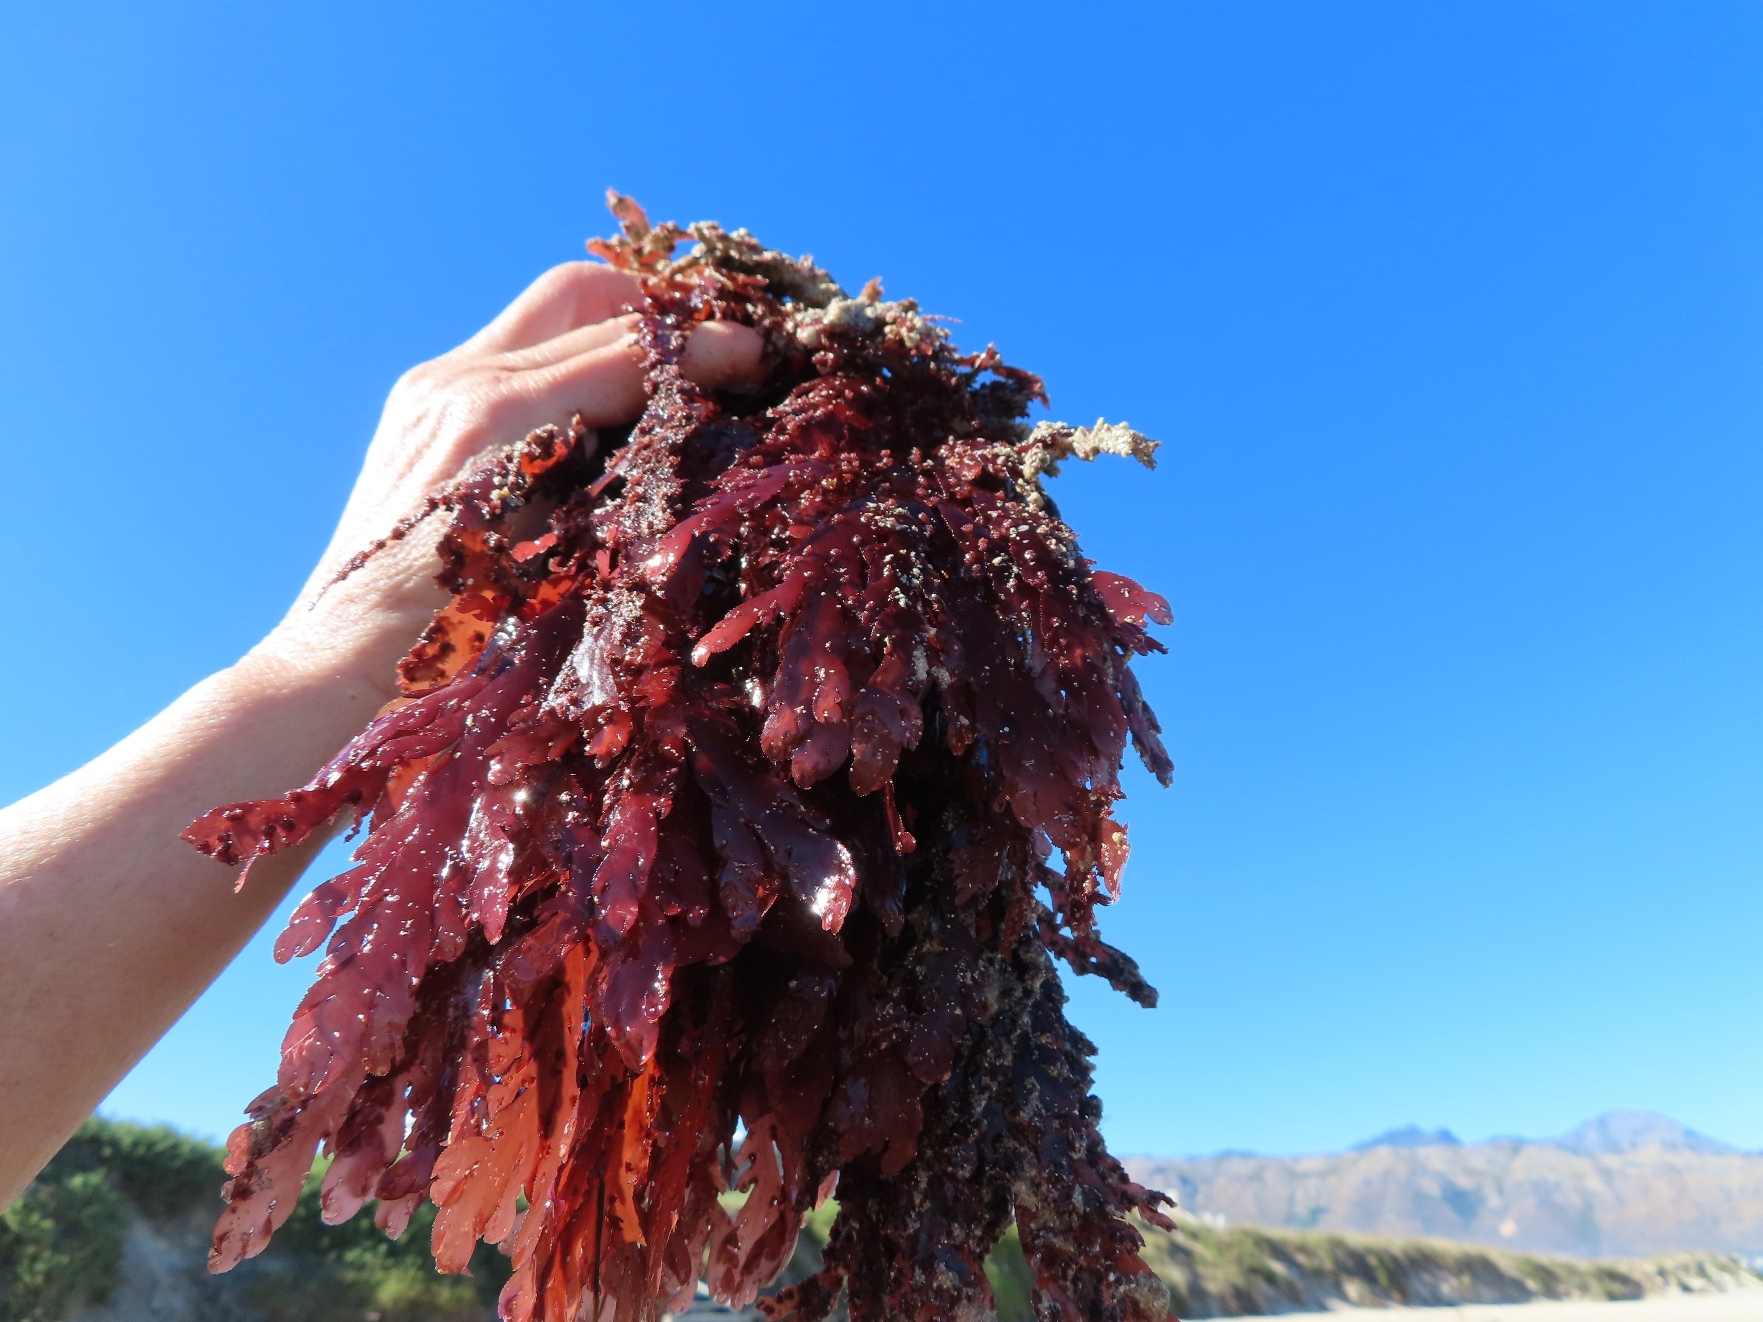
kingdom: Plantae
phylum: Rhodophyta
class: Florideophyceae
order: Ceramiales
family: Delesseriaceae
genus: Neuroglossum
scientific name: Neuroglossum
